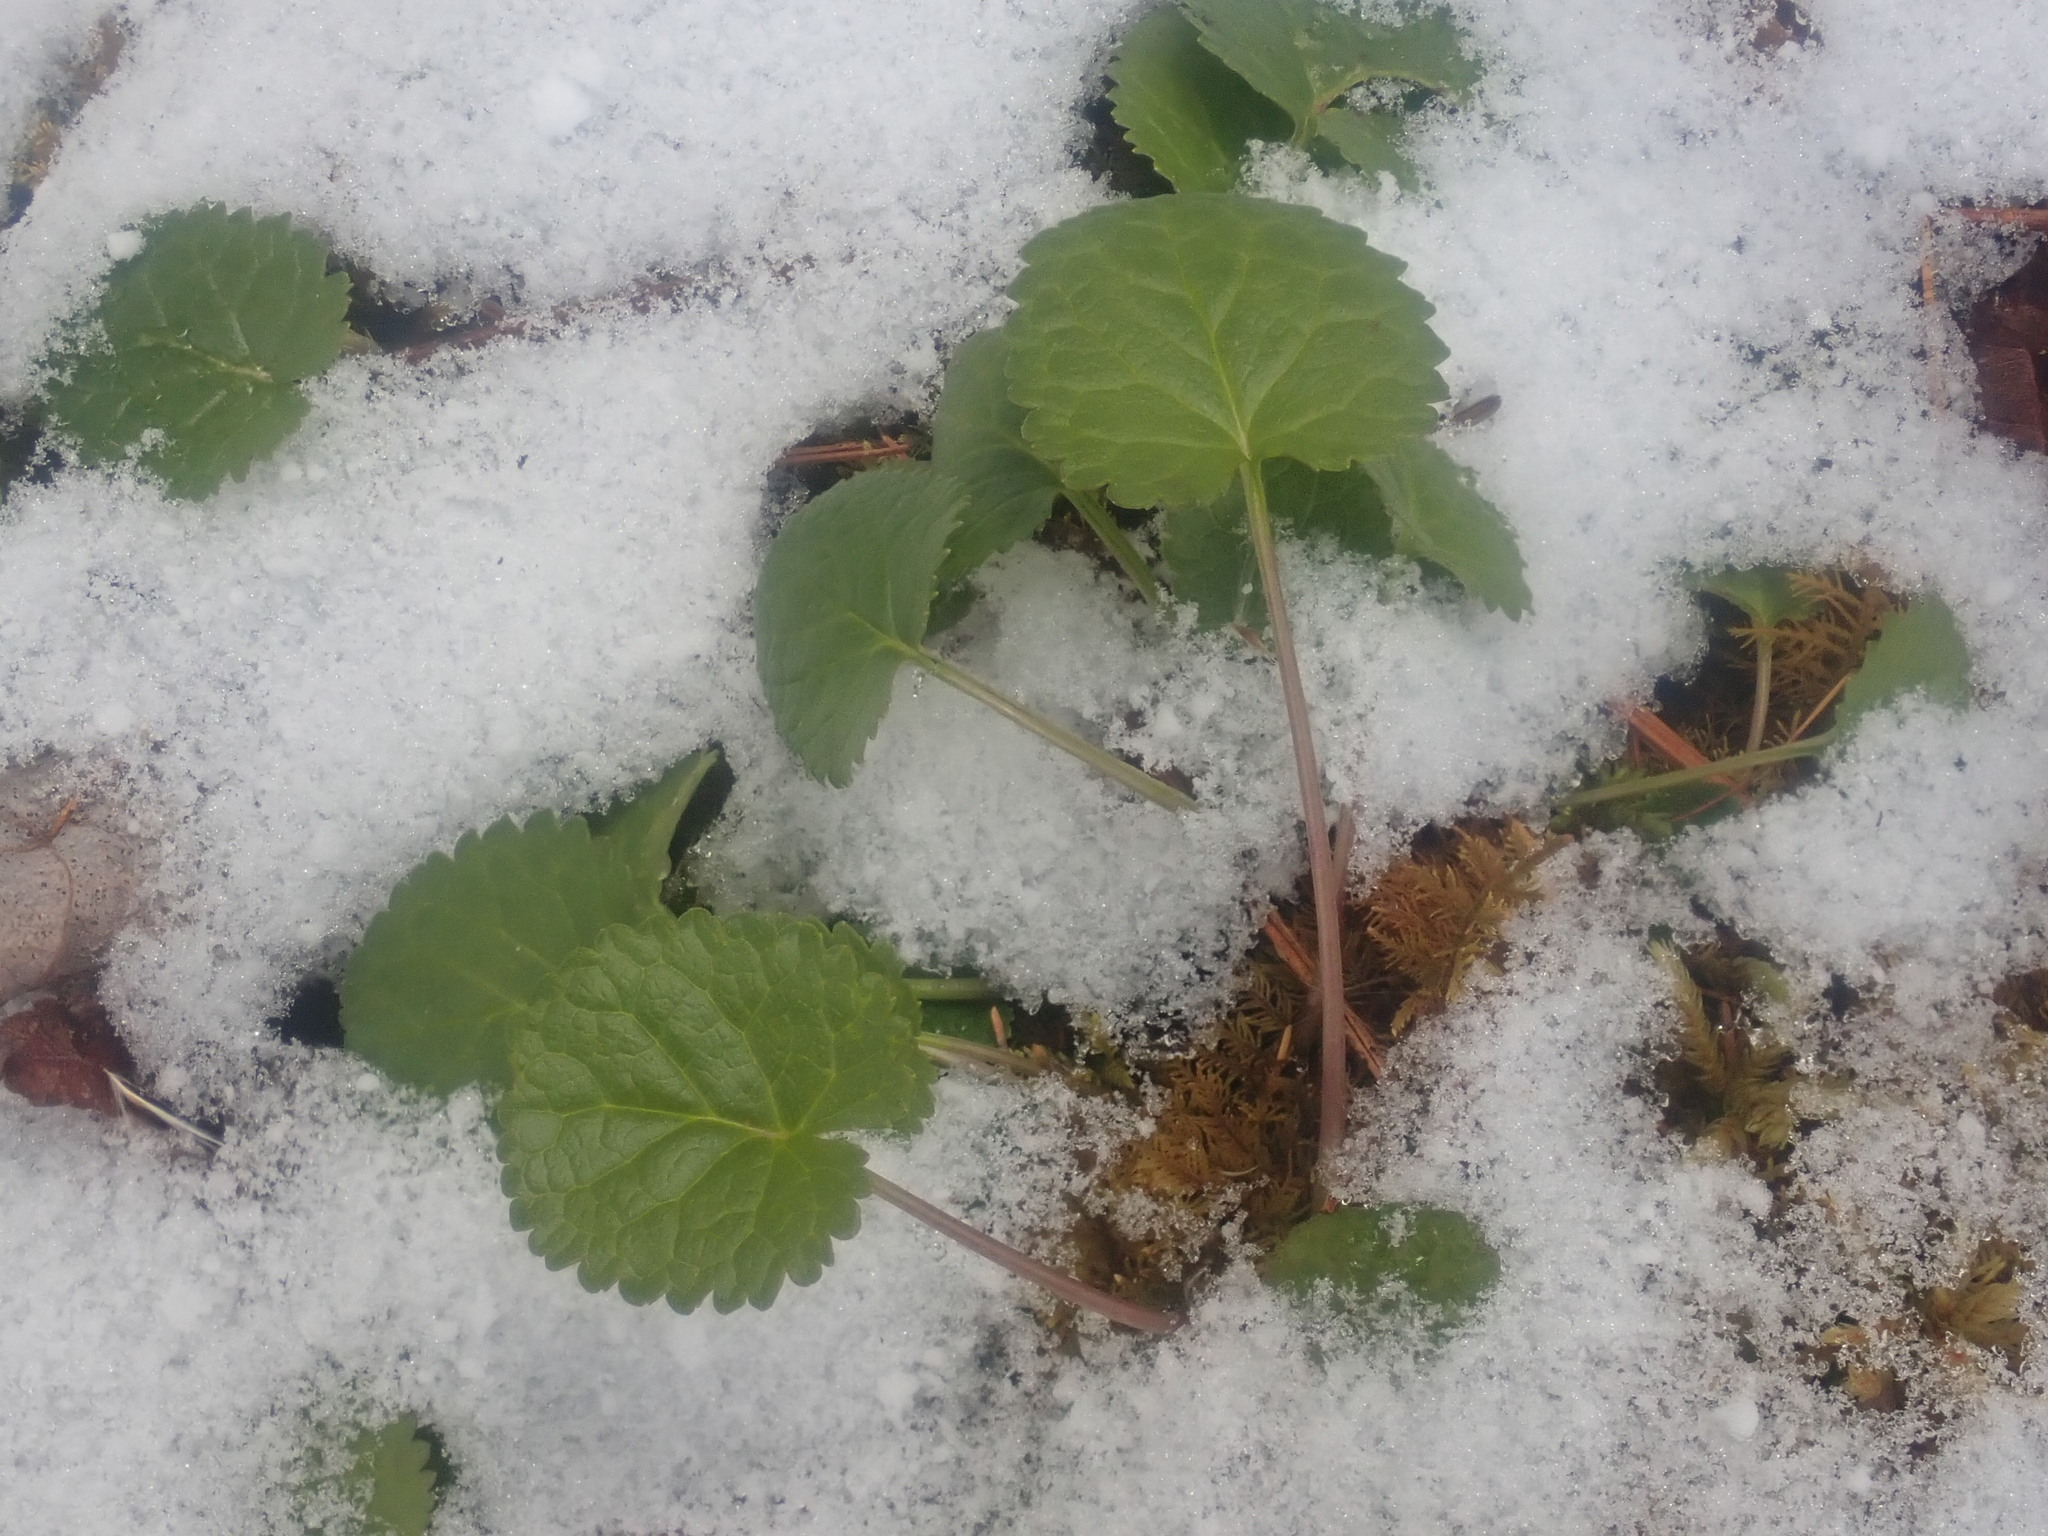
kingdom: Plantae
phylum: Tracheophyta
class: Magnoliopsida
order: Asterales
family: Asteraceae
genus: Packera
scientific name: Packera aurea
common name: Golden groundsel
